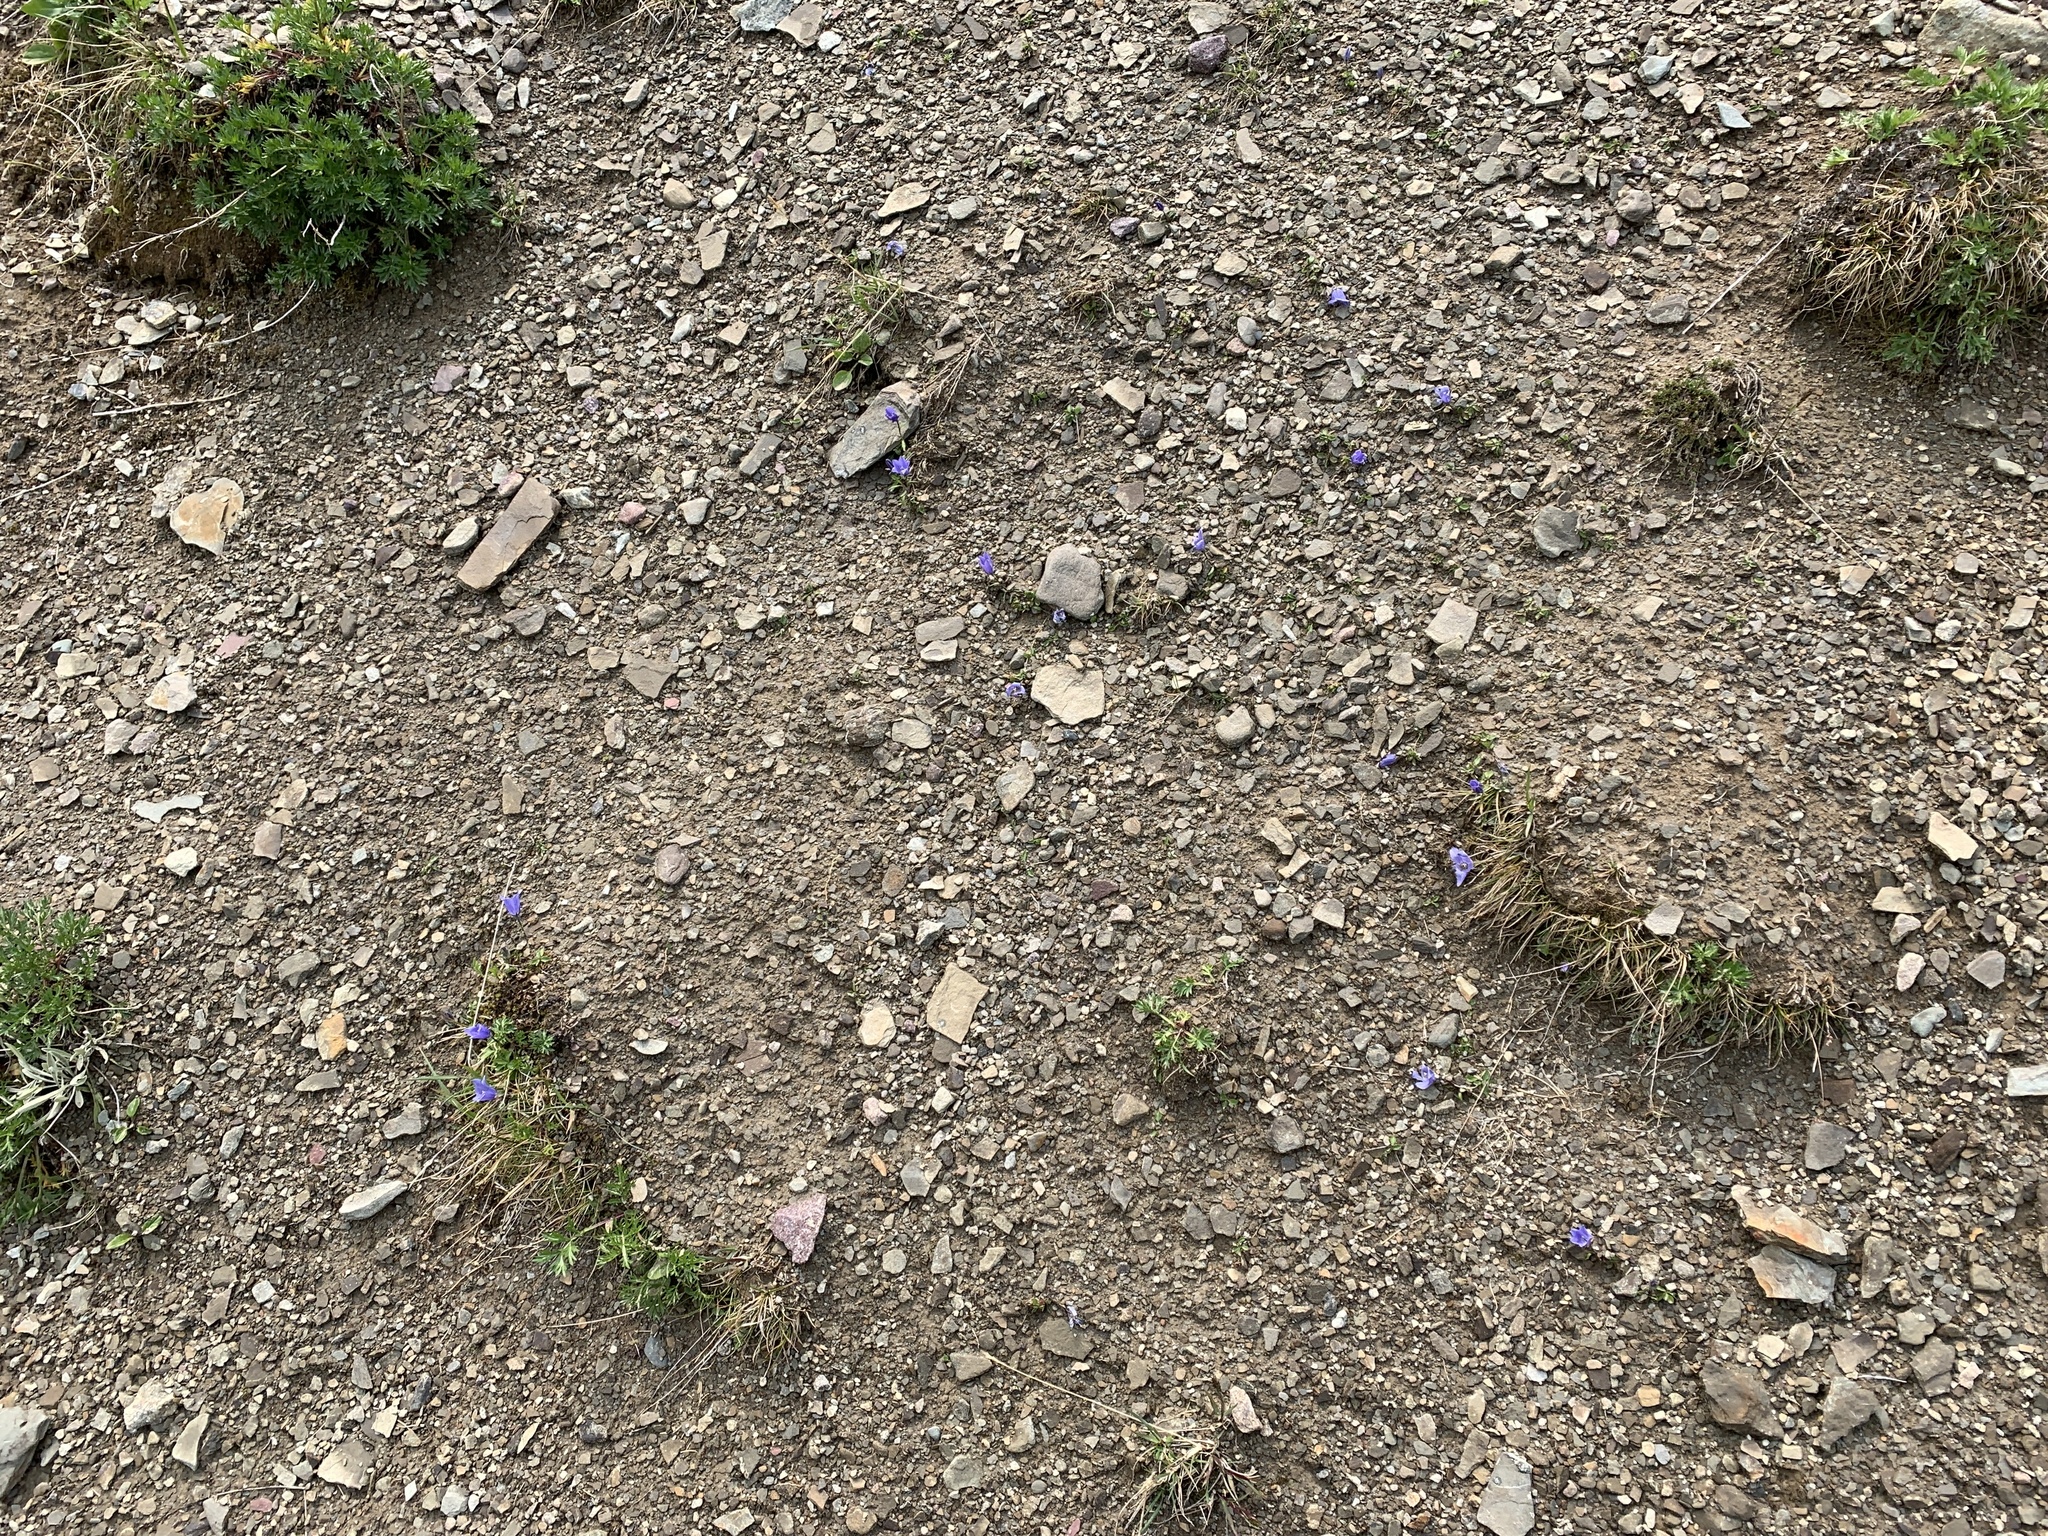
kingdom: Plantae
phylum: Tracheophyta
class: Magnoliopsida
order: Asterales
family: Campanulaceae
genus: Campanula
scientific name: Campanula lasiocarpa
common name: Mountain harebell
